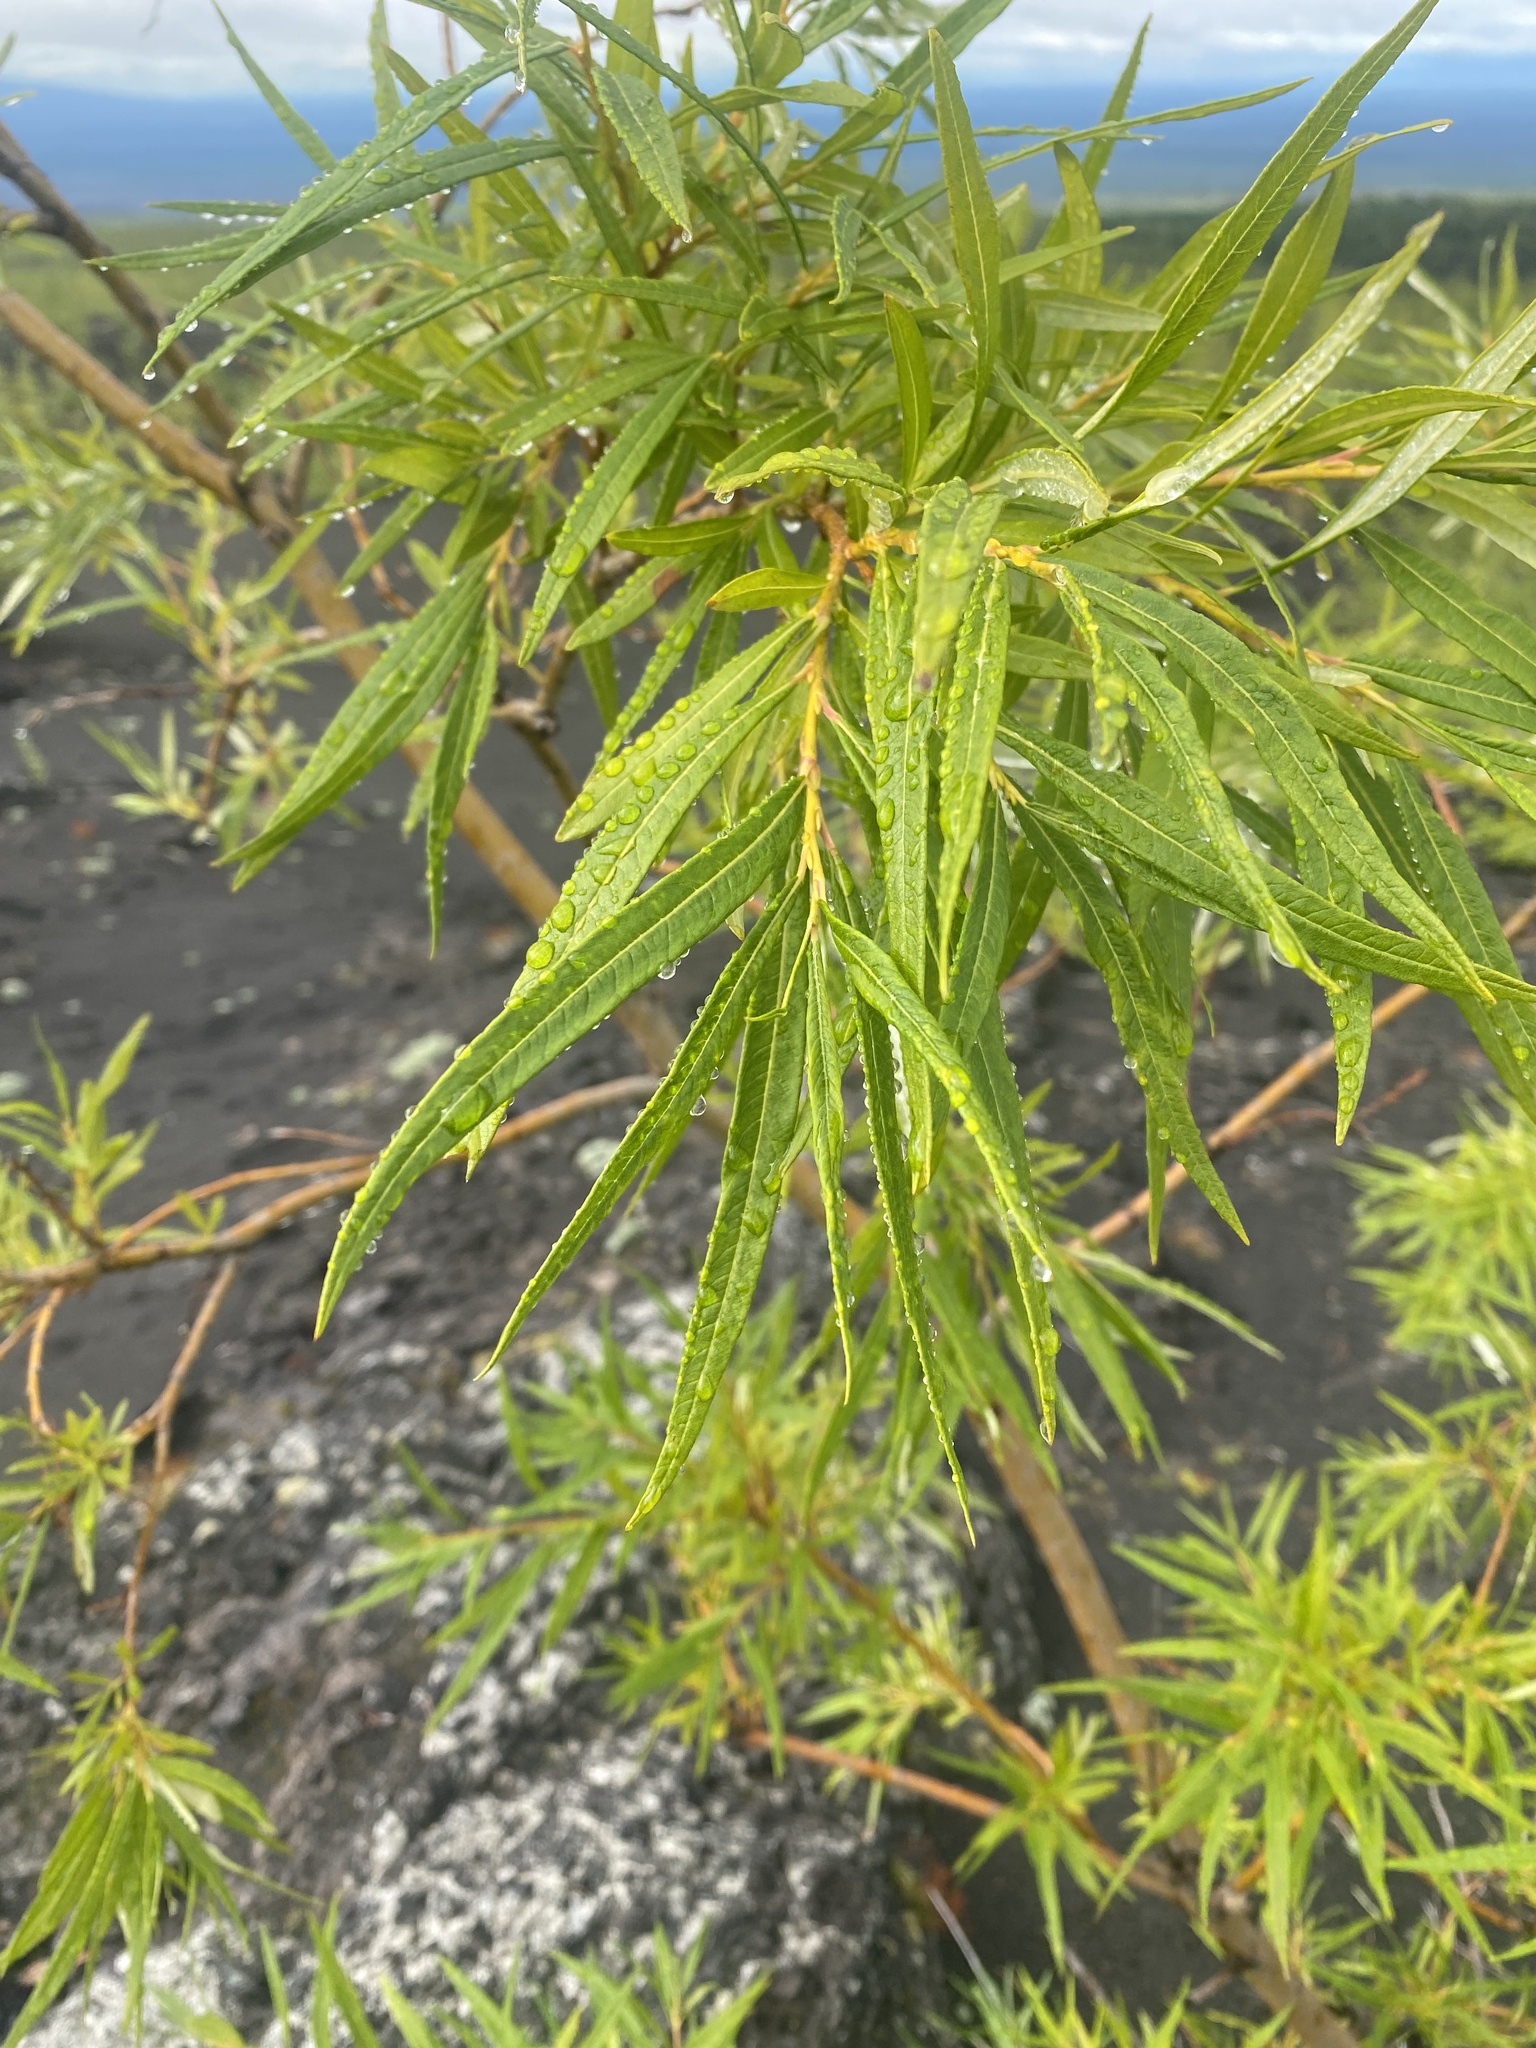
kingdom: Plantae
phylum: Tracheophyta
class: Magnoliopsida
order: Malpighiales
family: Salicaceae
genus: Salix
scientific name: Salix udensis
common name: Sachalin willow
